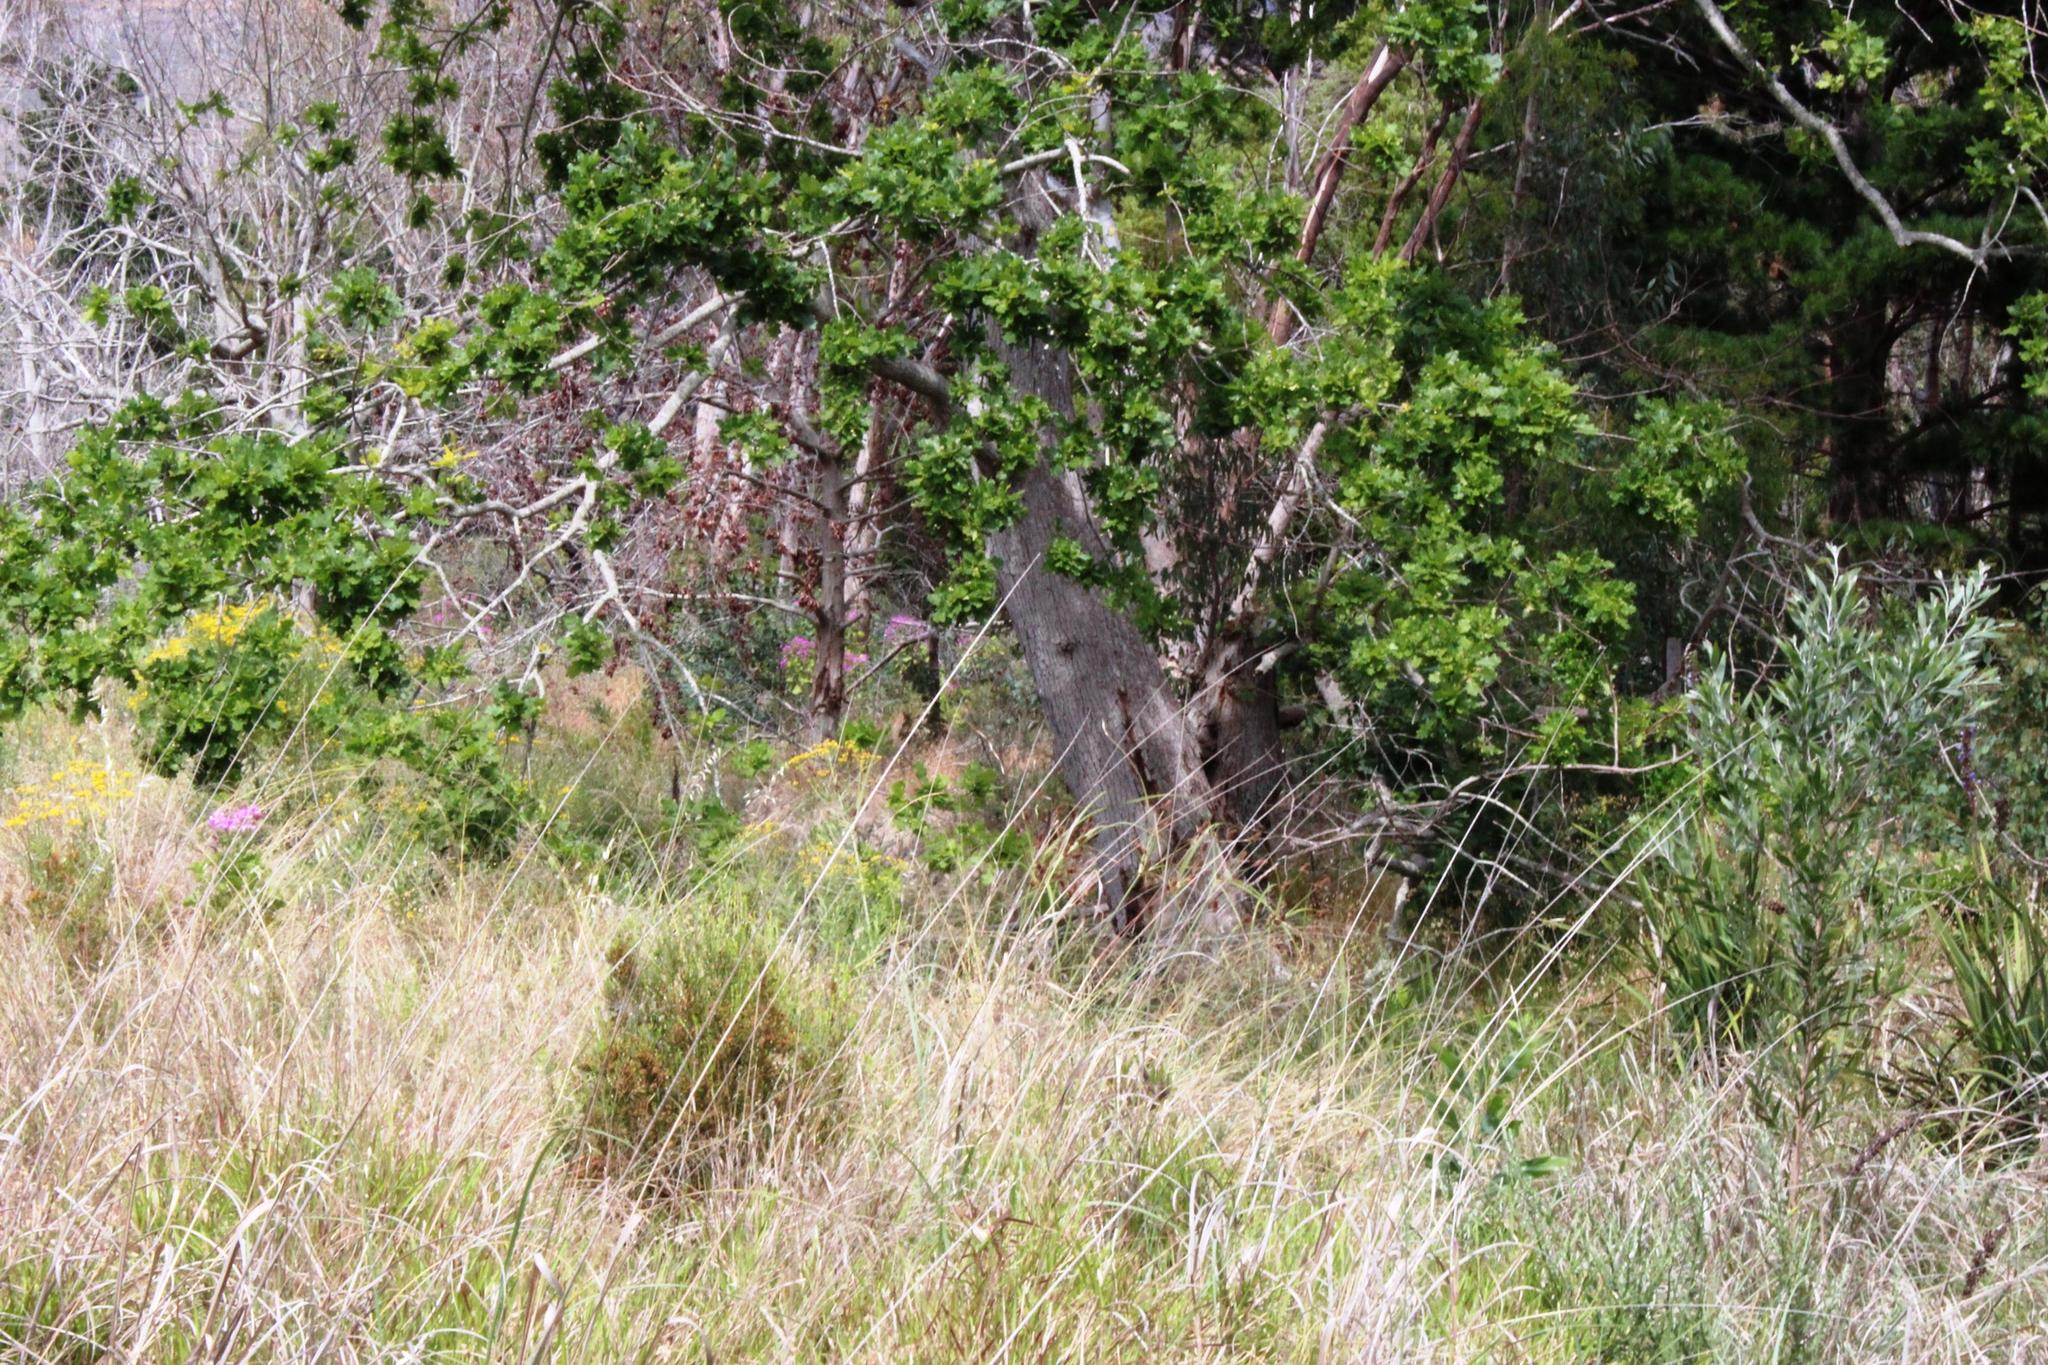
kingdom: Plantae
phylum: Tracheophyta
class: Magnoliopsida
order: Fagales
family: Fagaceae
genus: Quercus
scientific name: Quercus robur
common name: Pedunculate oak
